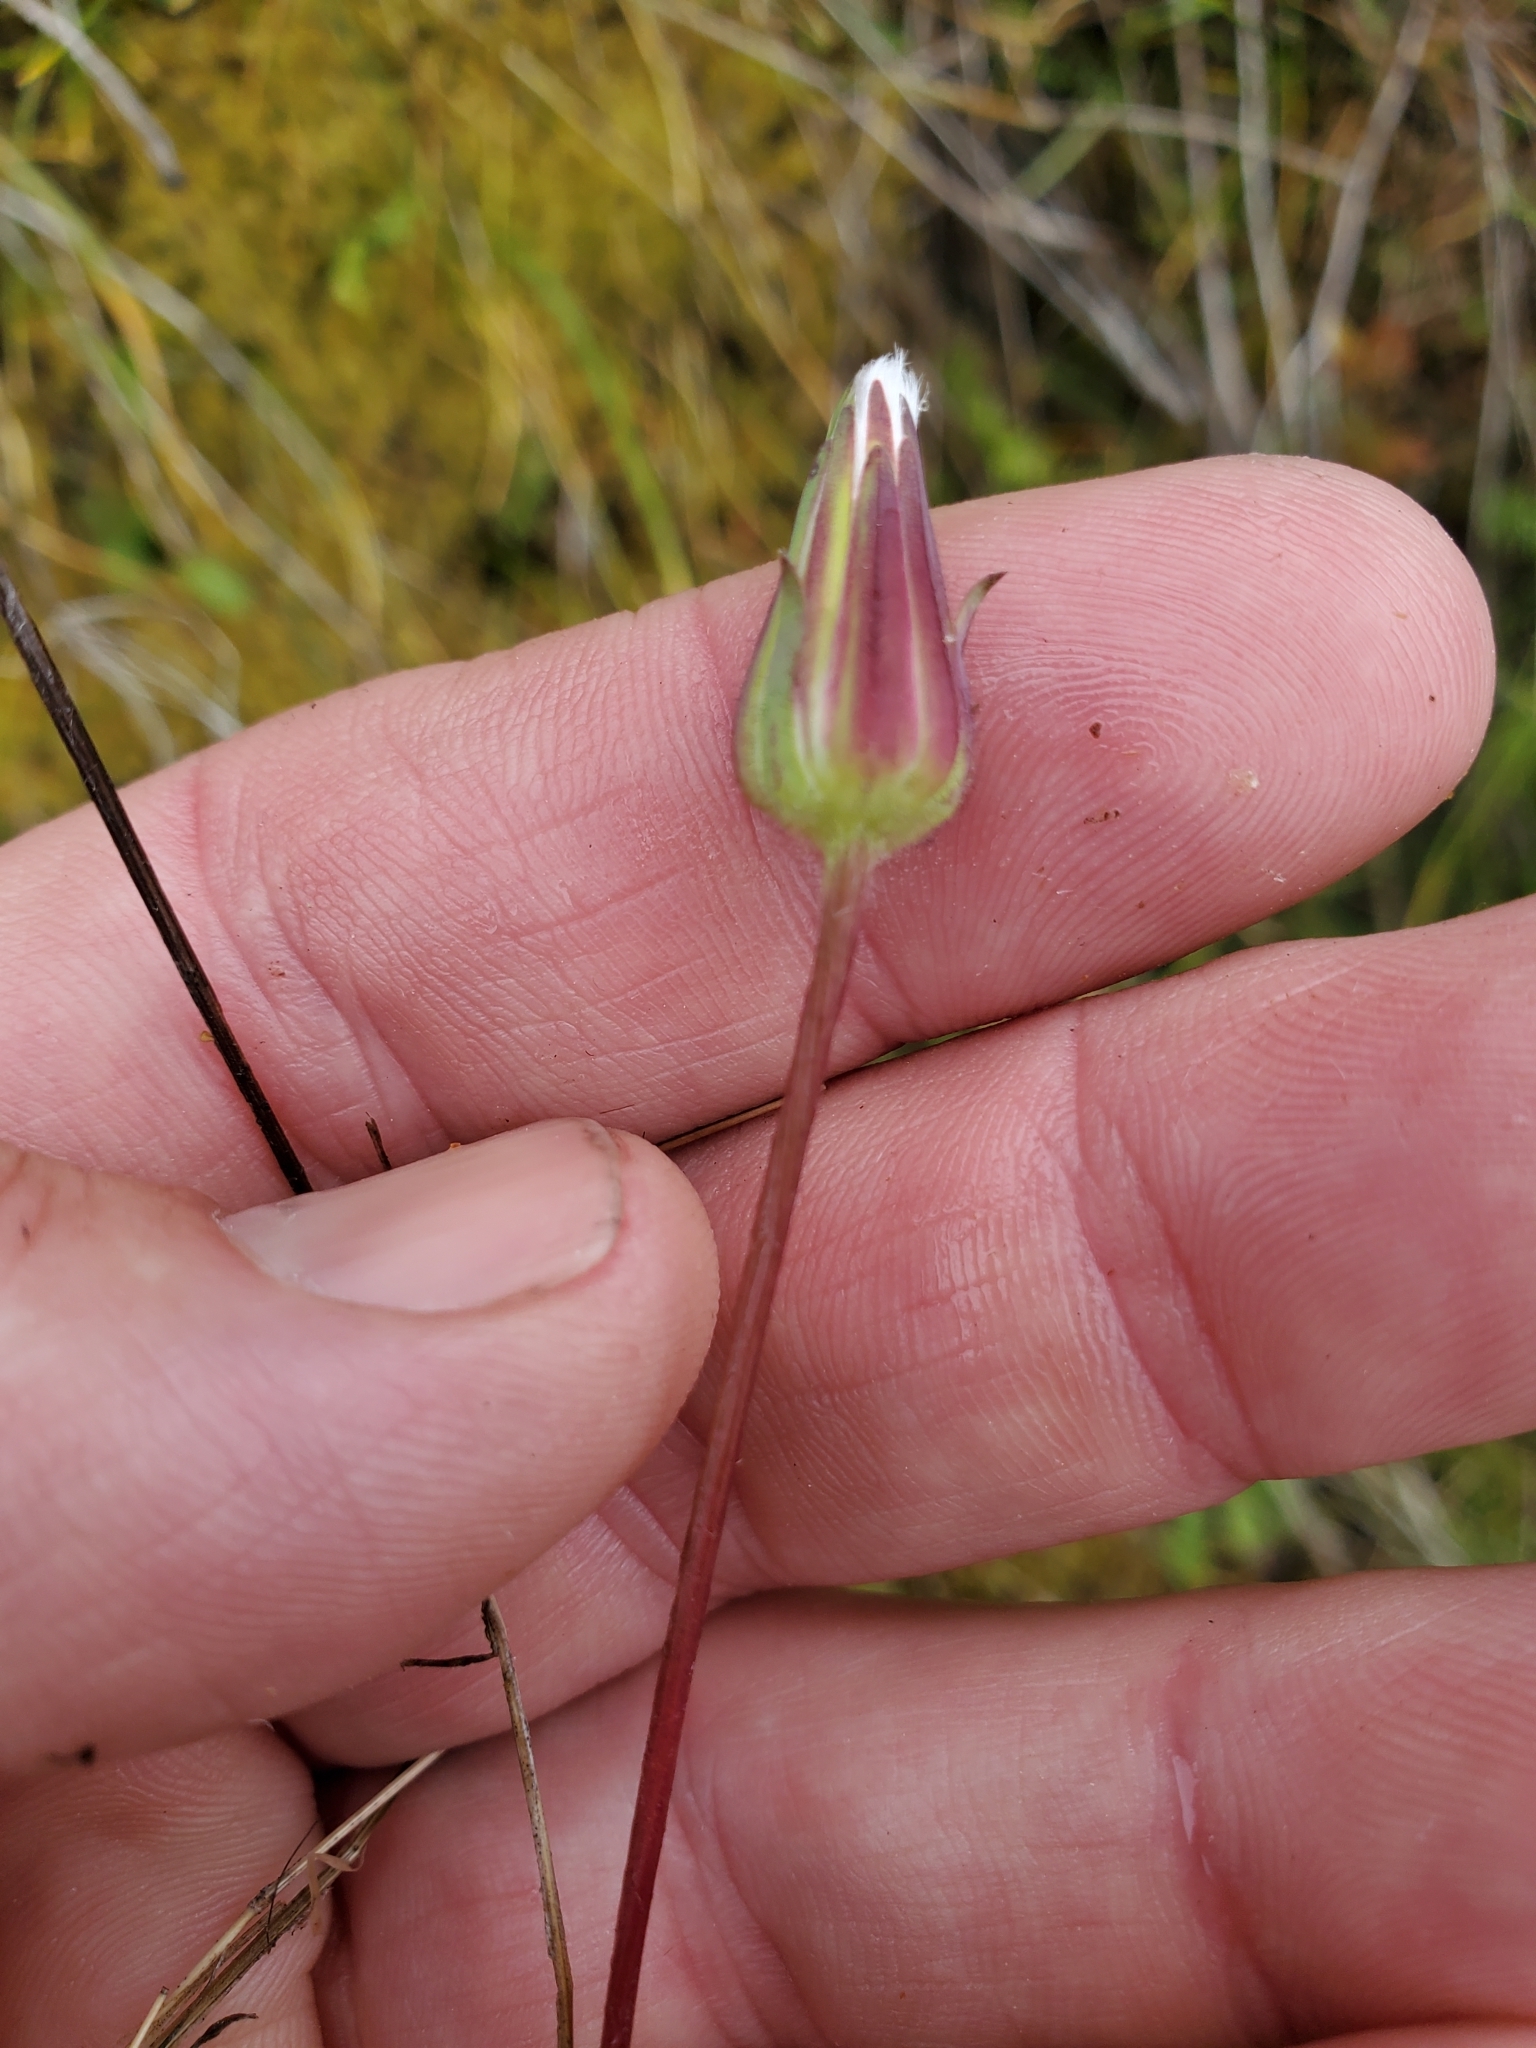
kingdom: Plantae
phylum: Tracheophyta
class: Magnoliopsida
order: Asterales
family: Asteraceae
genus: Agoseris
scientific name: Agoseris heterophylla
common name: Annual agoseris
